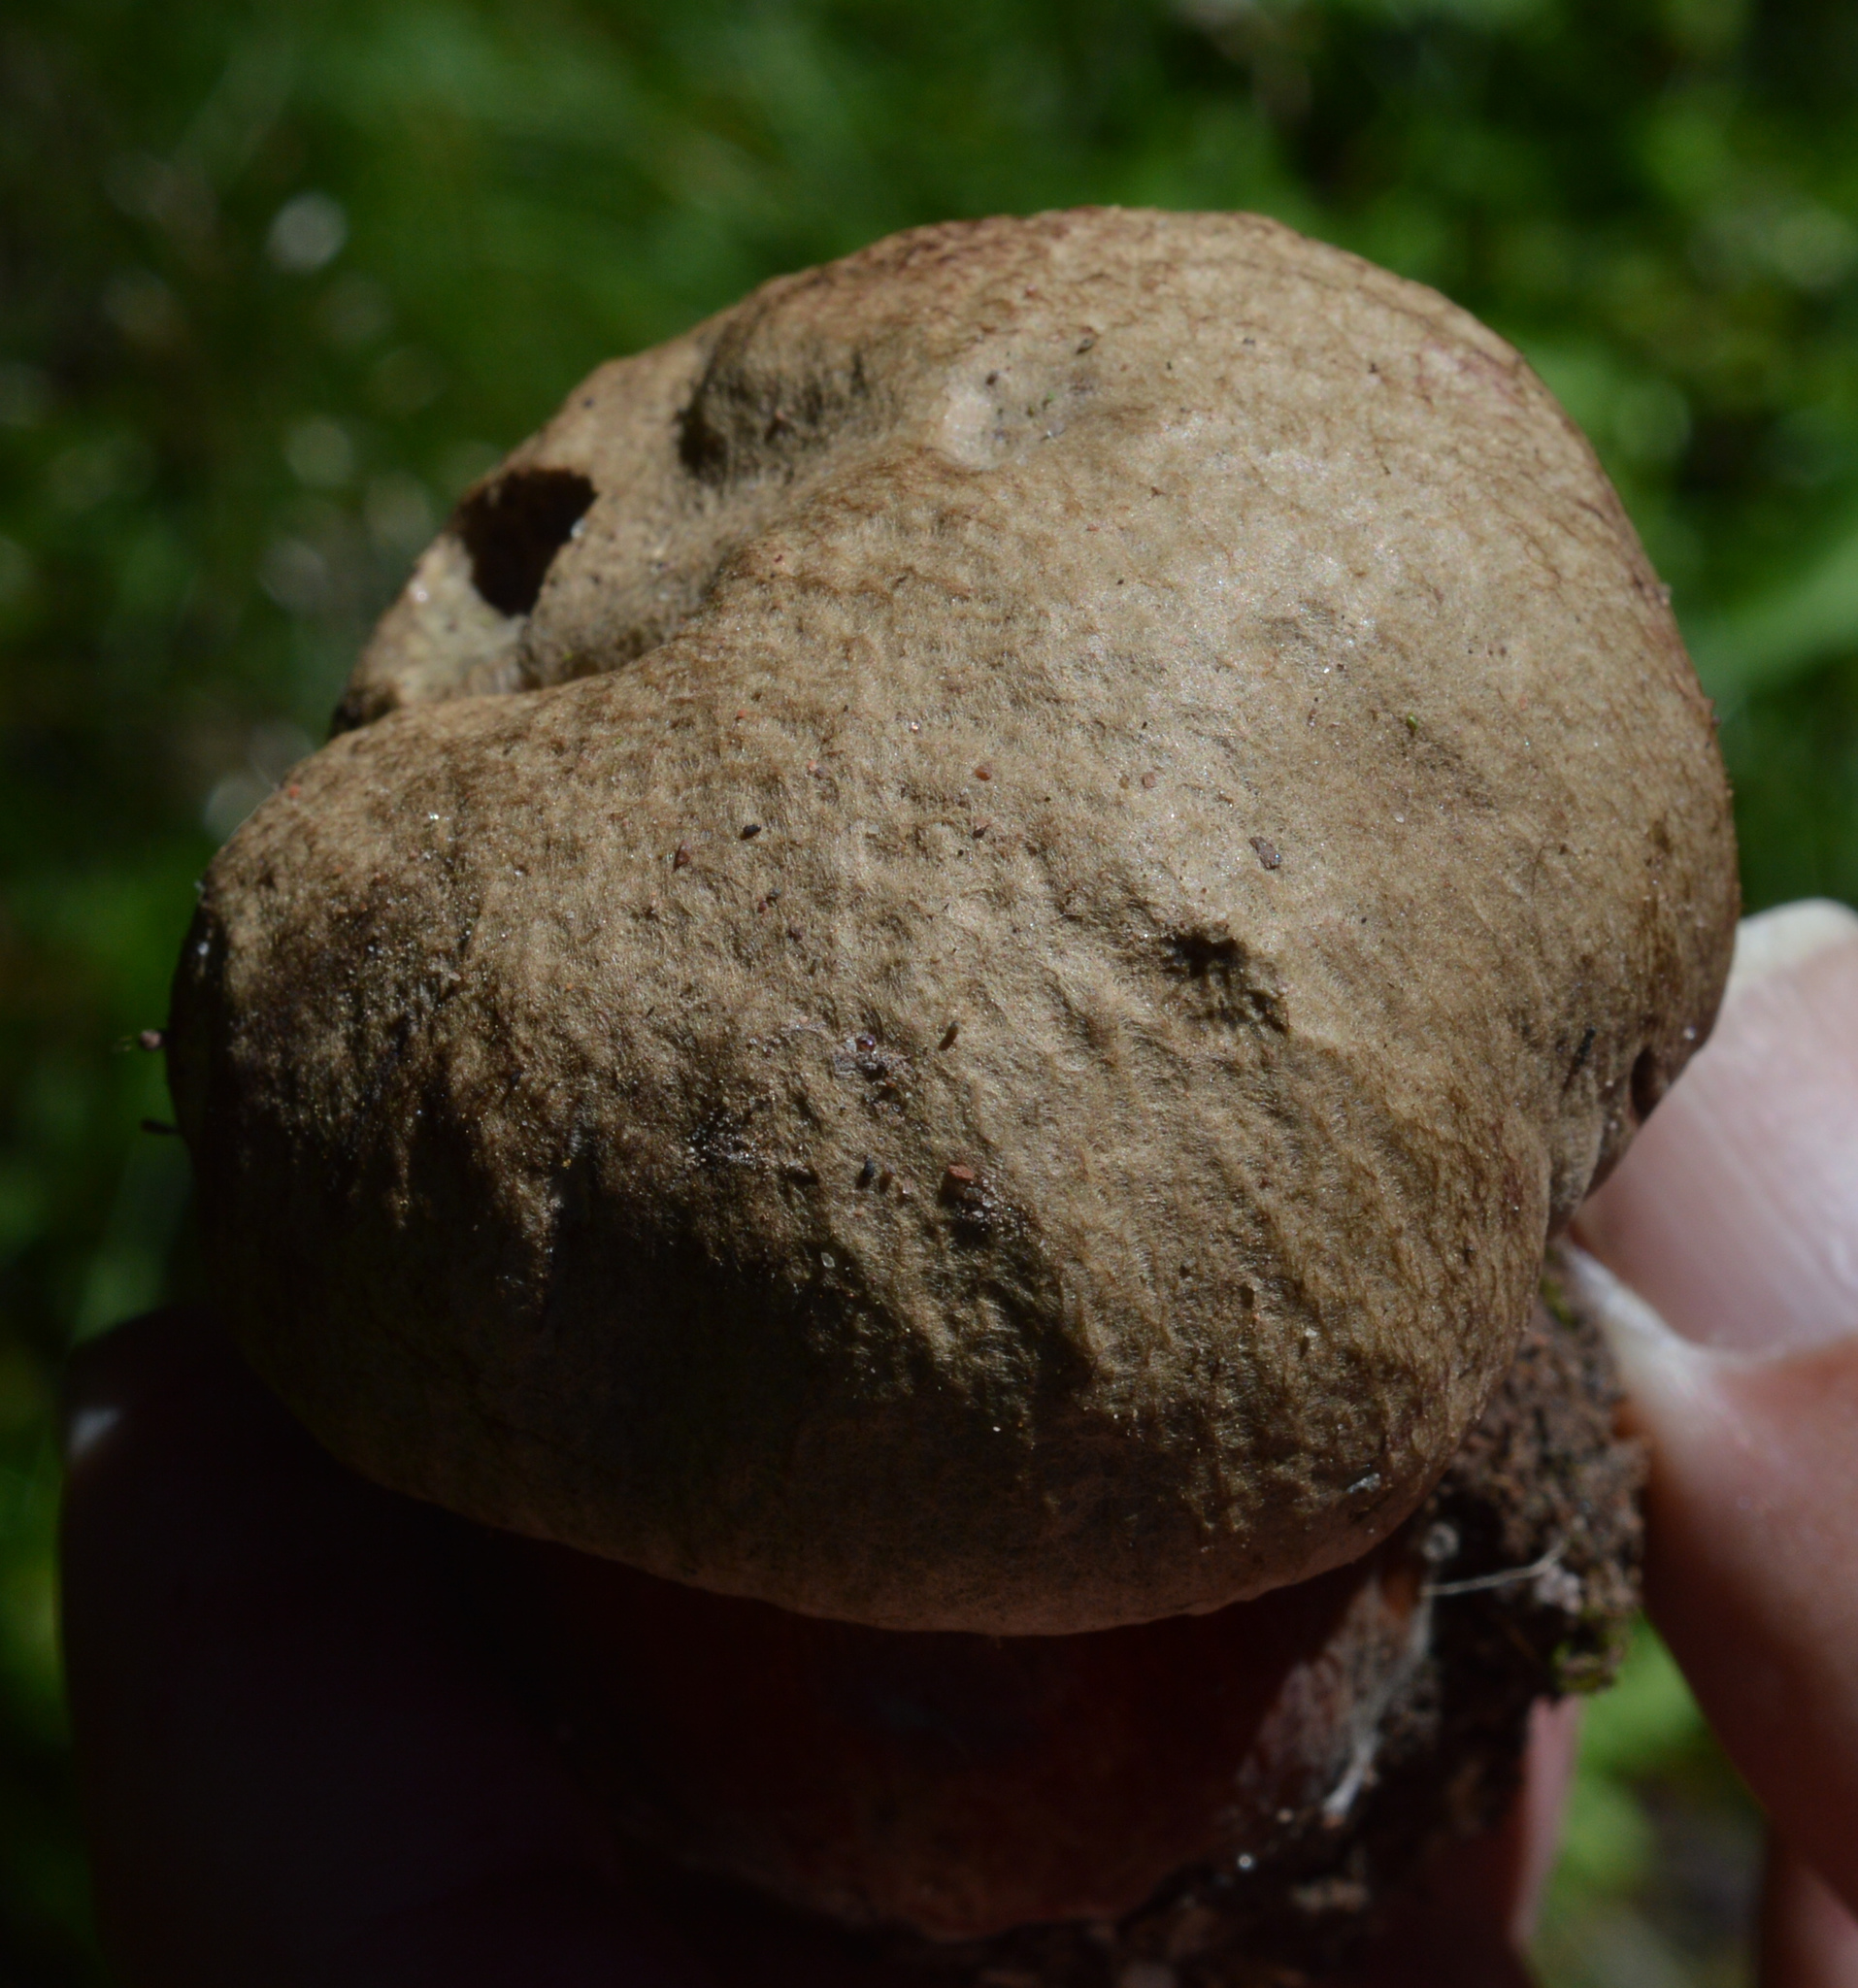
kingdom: Fungi
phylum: Basidiomycota
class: Agaricomycetes
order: Boletales
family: Boletaceae
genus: Caloboletus
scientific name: Caloboletus calopus
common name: Bitter beech bolete
